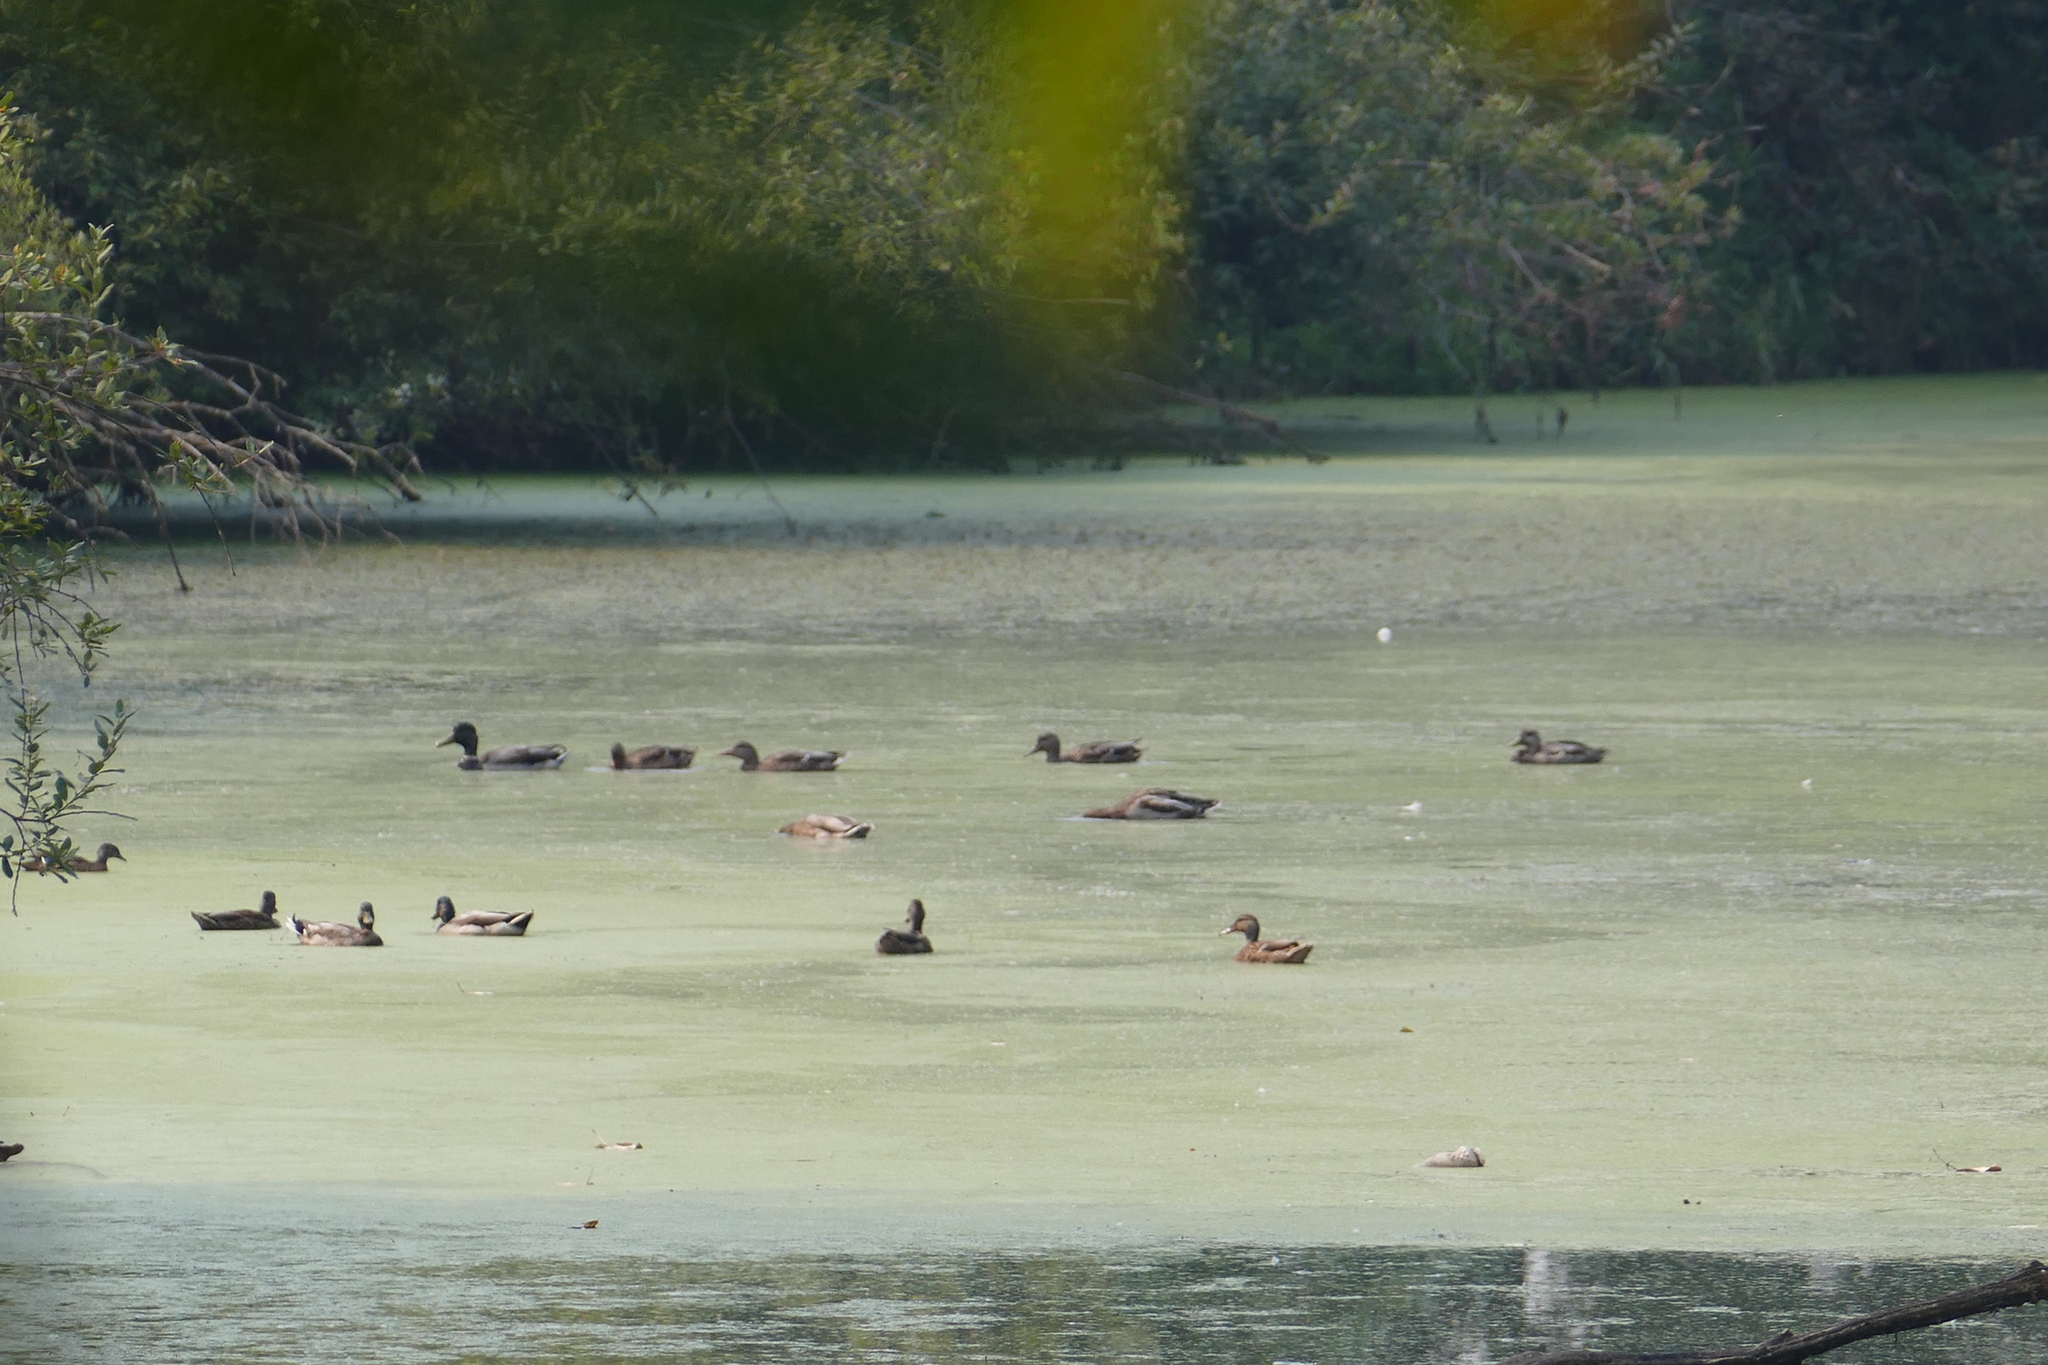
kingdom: Animalia
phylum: Chordata
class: Aves
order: Anseriformes
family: Anatidae
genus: Anas
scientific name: Anas platyrhynchos
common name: Mallard
